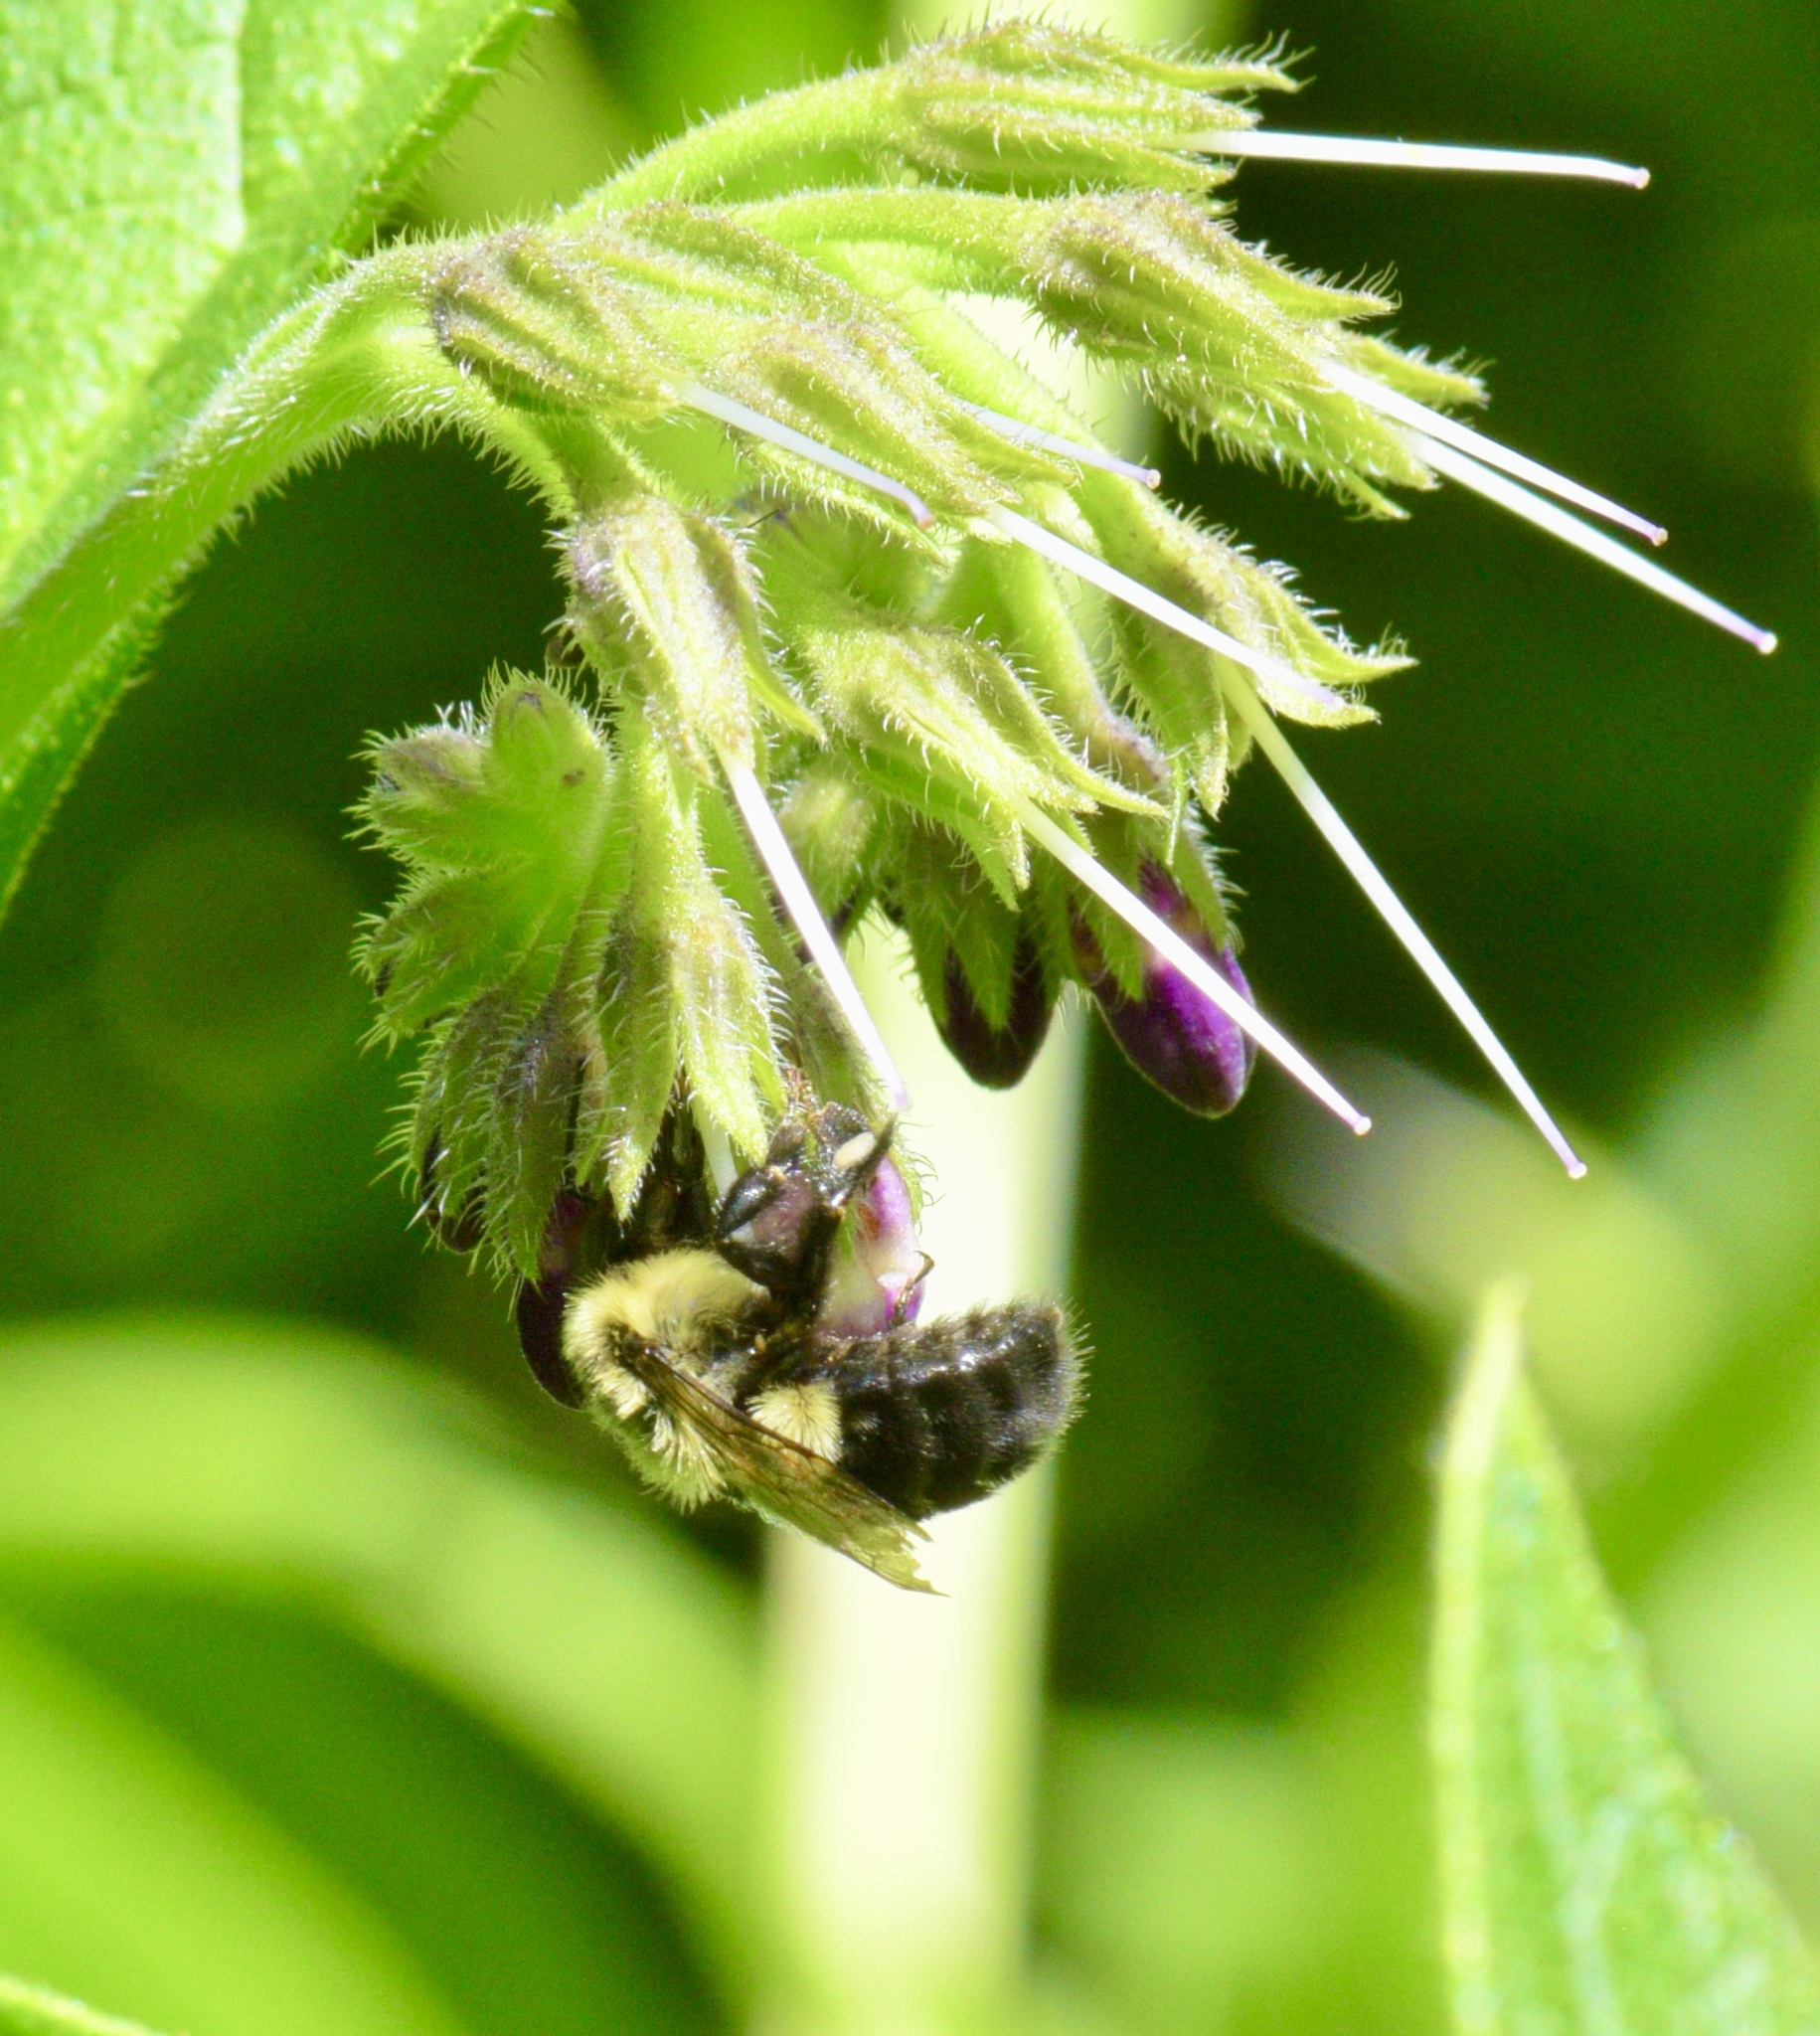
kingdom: Animalia
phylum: Arthropoda
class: Insecta
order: Hymenoptera
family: Apidae
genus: Bombus
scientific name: Bombus impatiens
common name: Common eastern bumble bee
